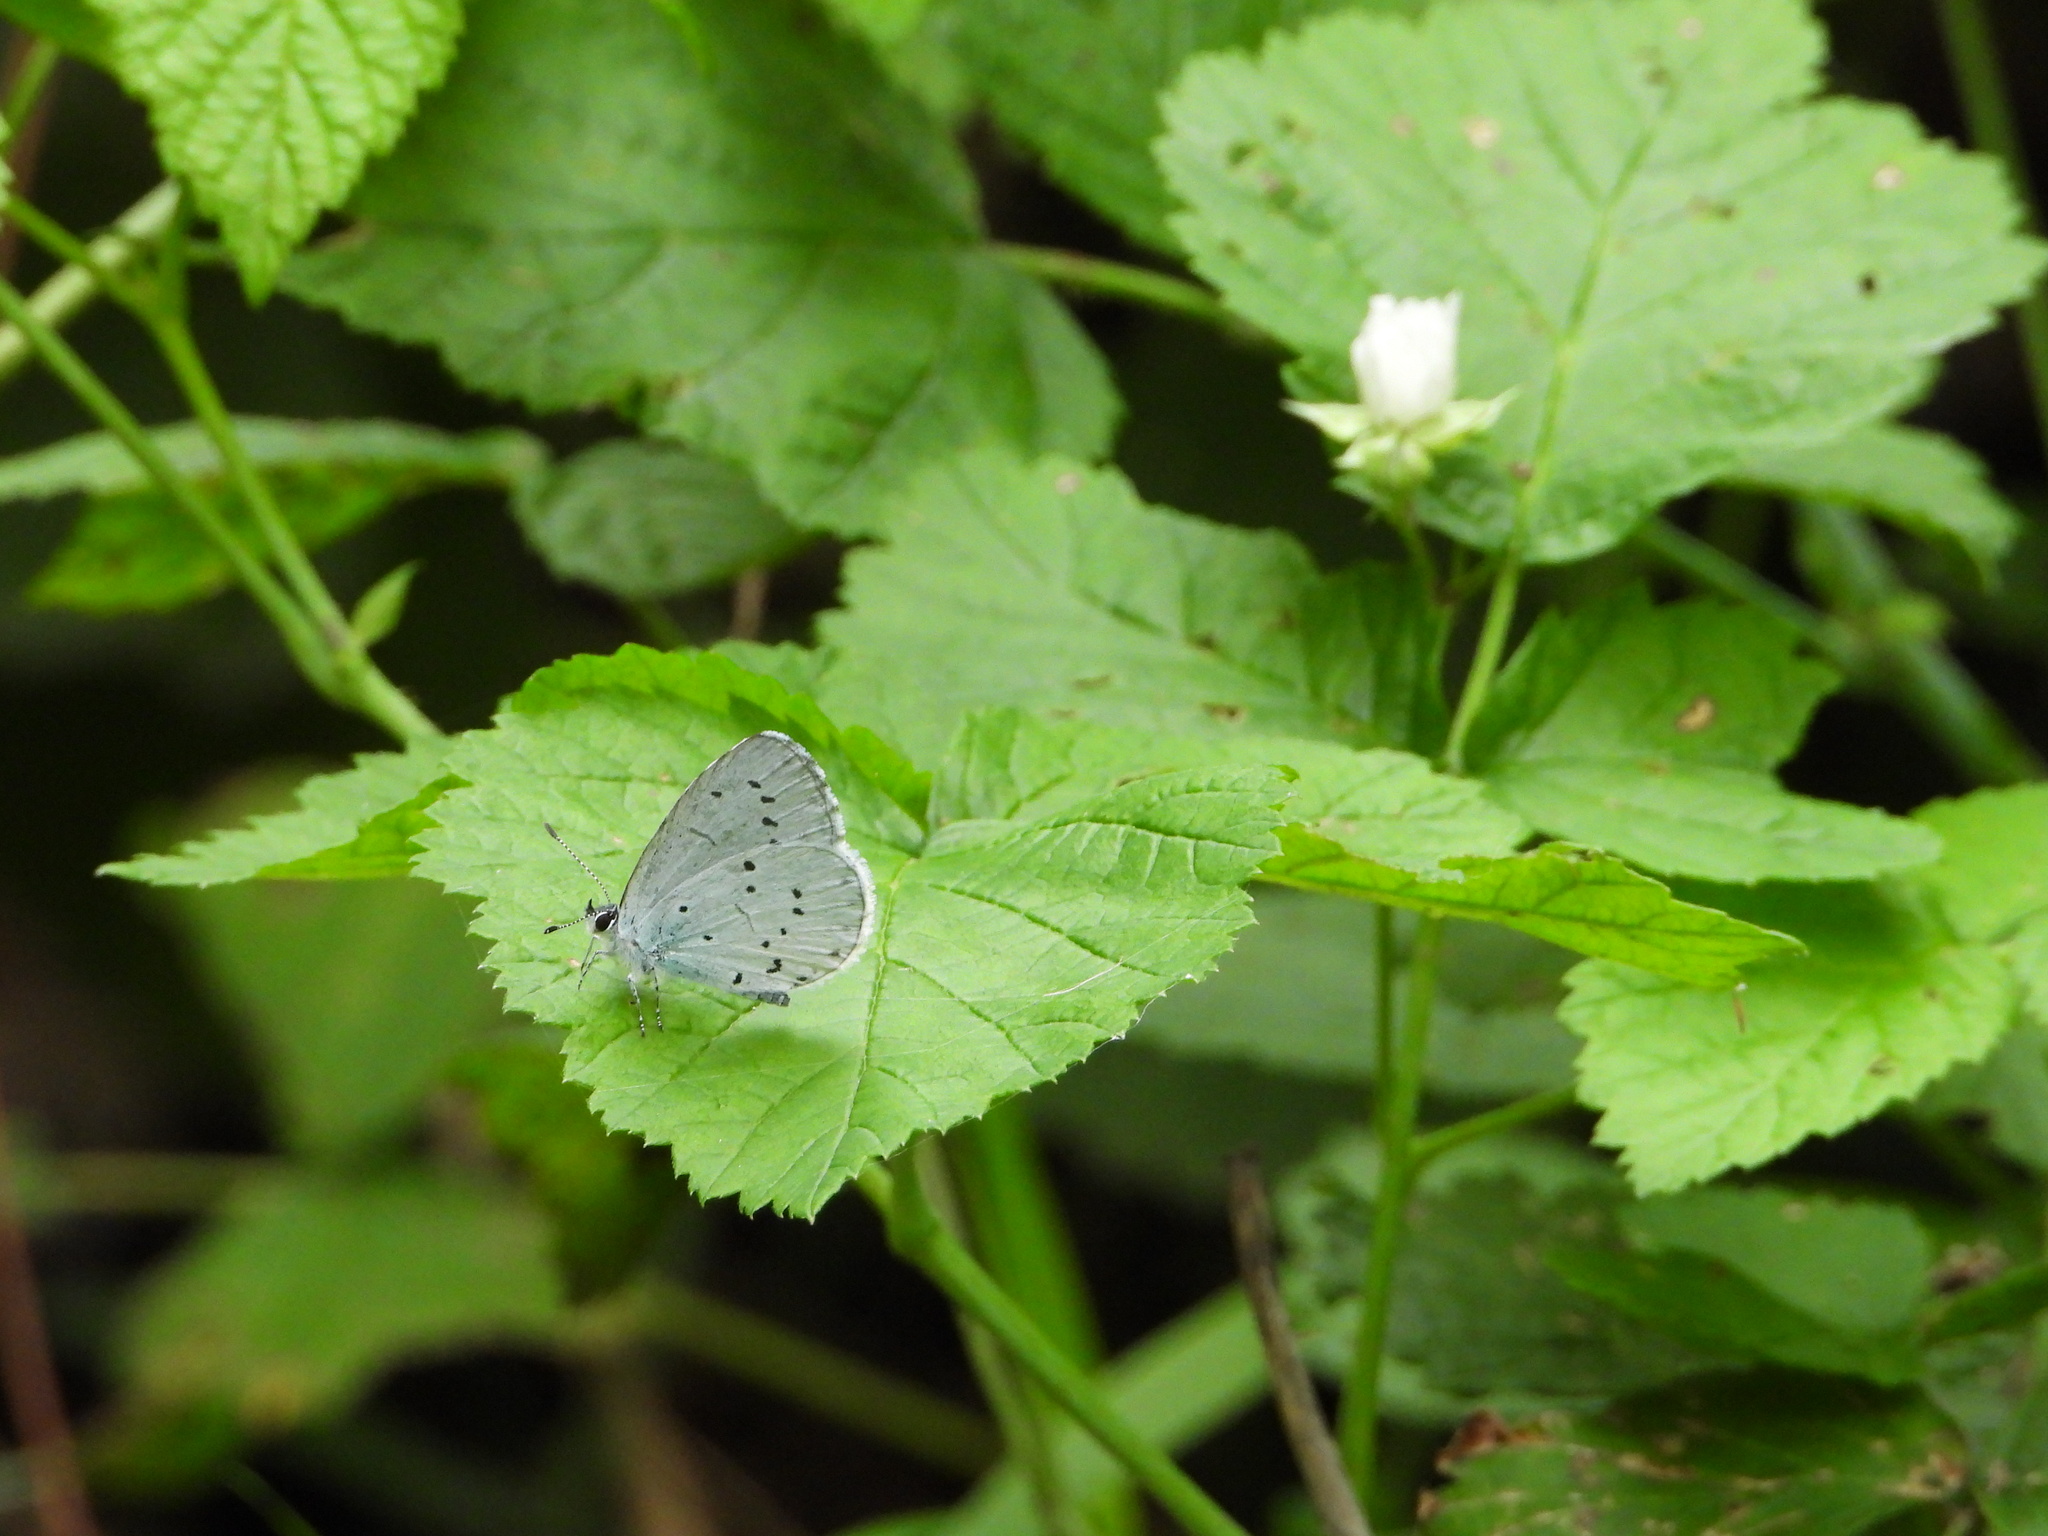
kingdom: Animalia
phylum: Arthropoda
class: Insecta
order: Lepidoptera
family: Lycaenidae
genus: Celastrina
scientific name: Celastrina argiolus
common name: Holly blue
